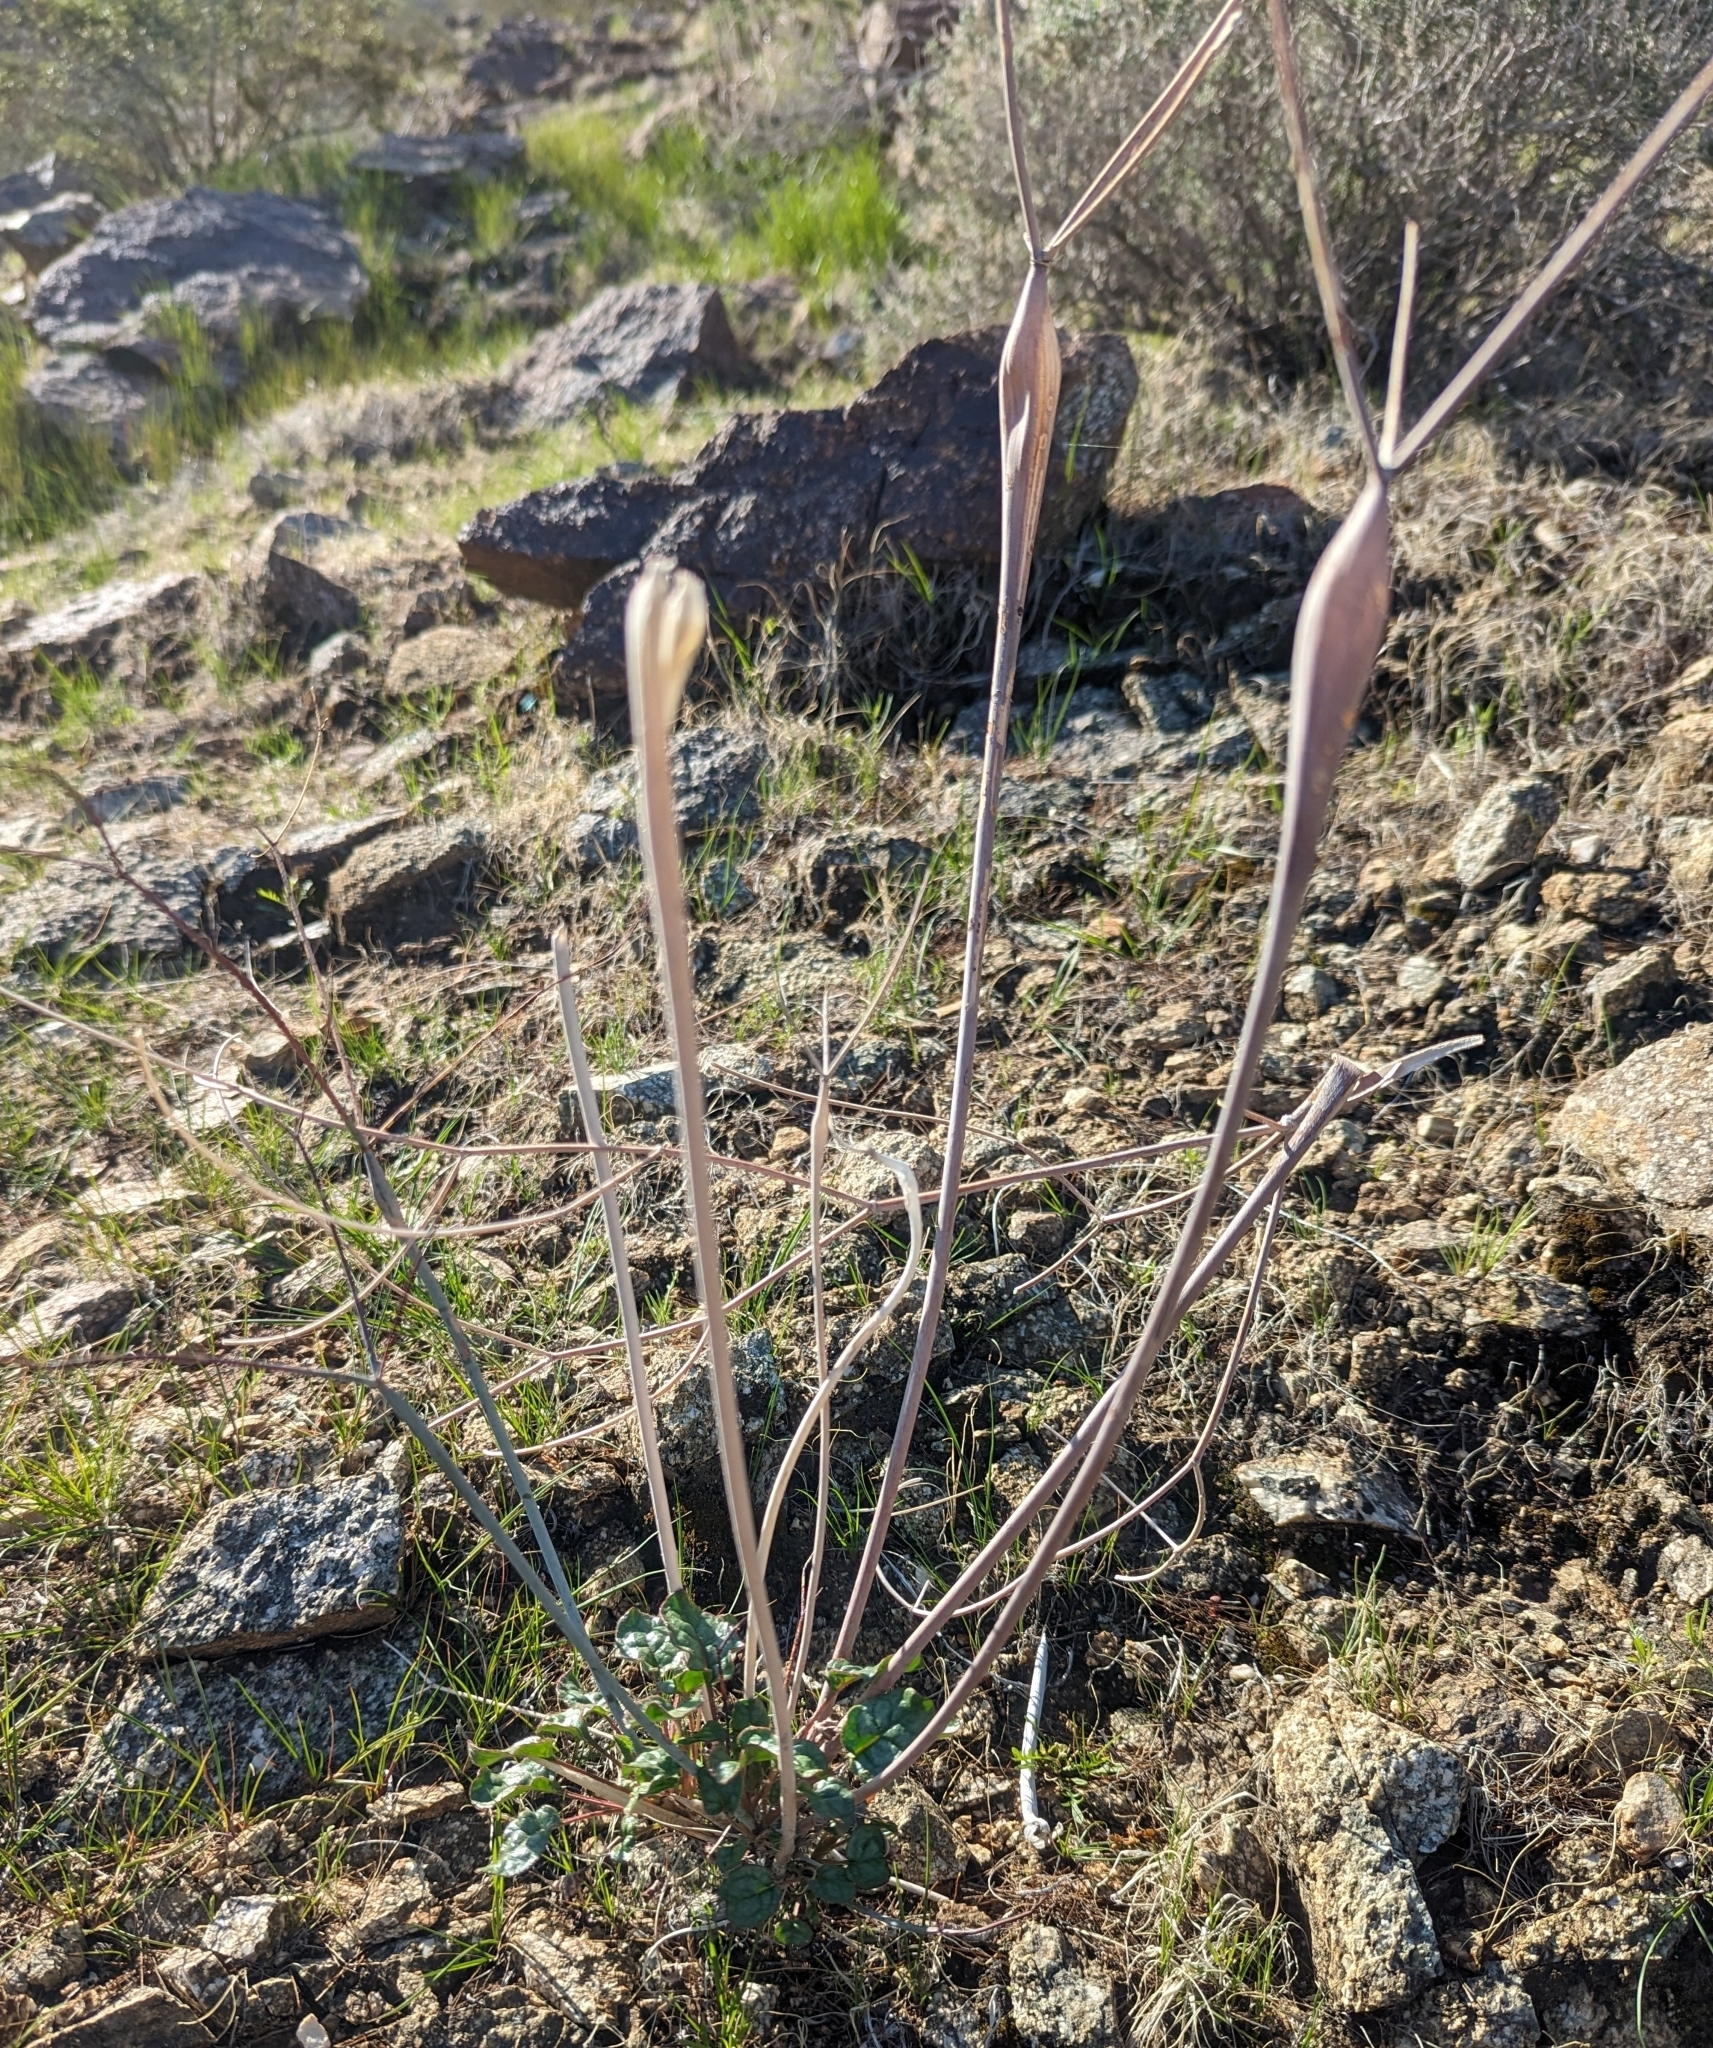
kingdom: Plantae
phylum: Tracheophyta
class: Magnoliopsida
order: Caryophyllales
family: Polygonaceae
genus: Eriogonum
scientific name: Eriogonum inflatum
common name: Desert trumpet
